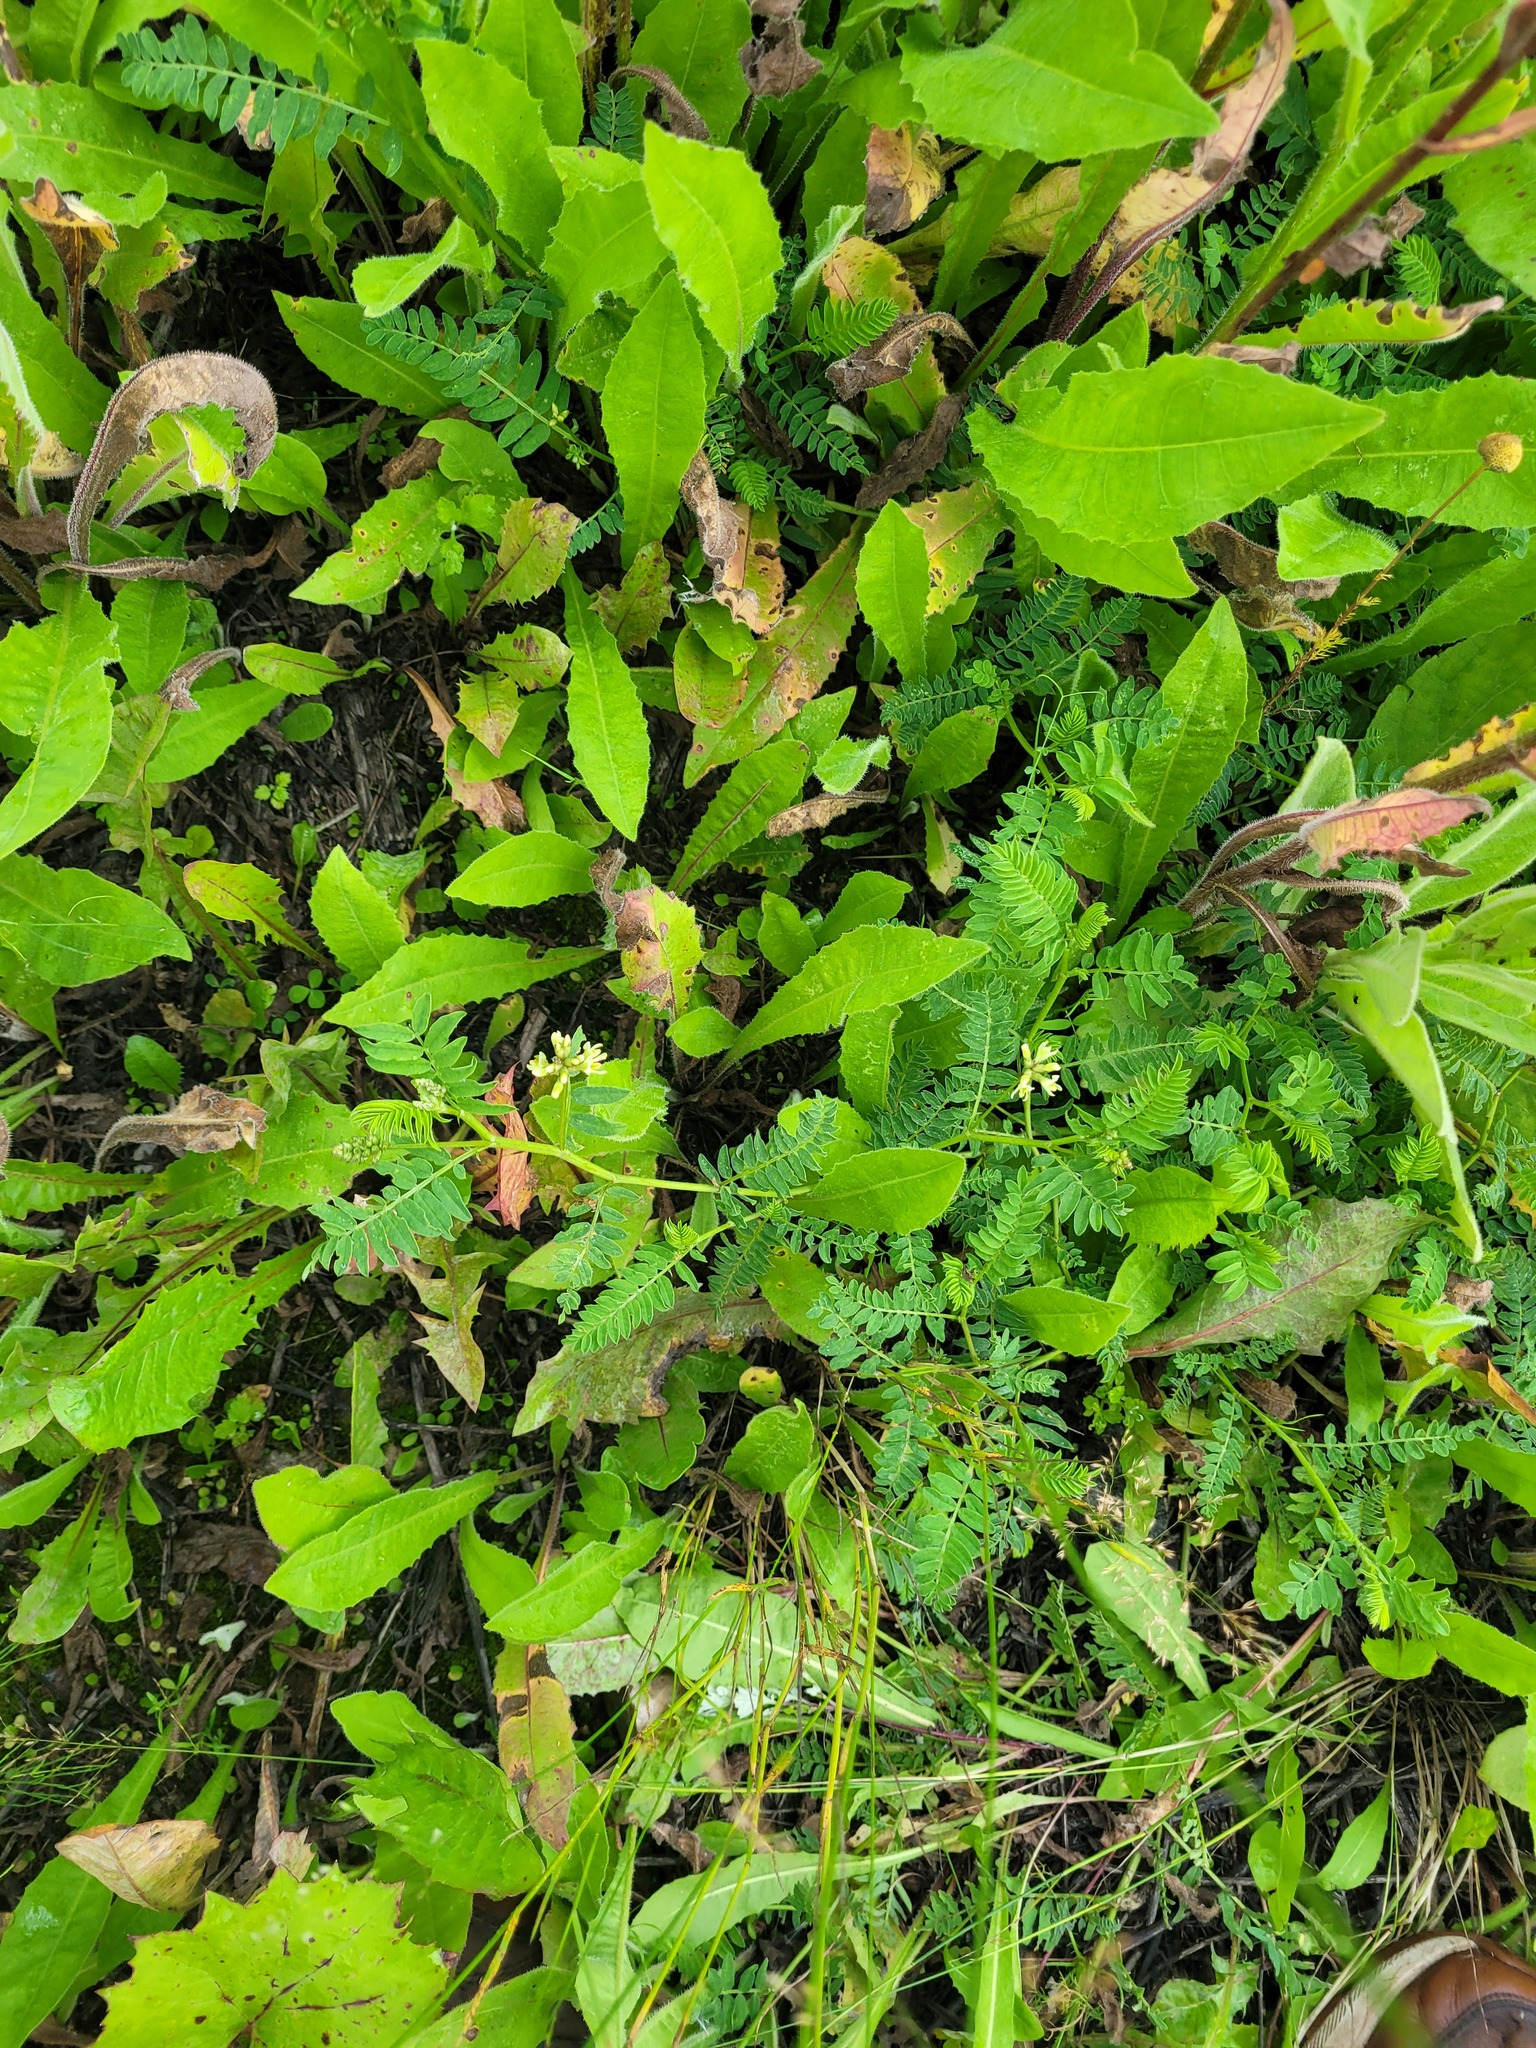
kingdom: Plantae
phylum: Tracheophyta
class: Magnoliopsida
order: Fabales
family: Fabaceae
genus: Astragalus
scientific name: Astragalus cicer
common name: Chick-pea milk-vetch
